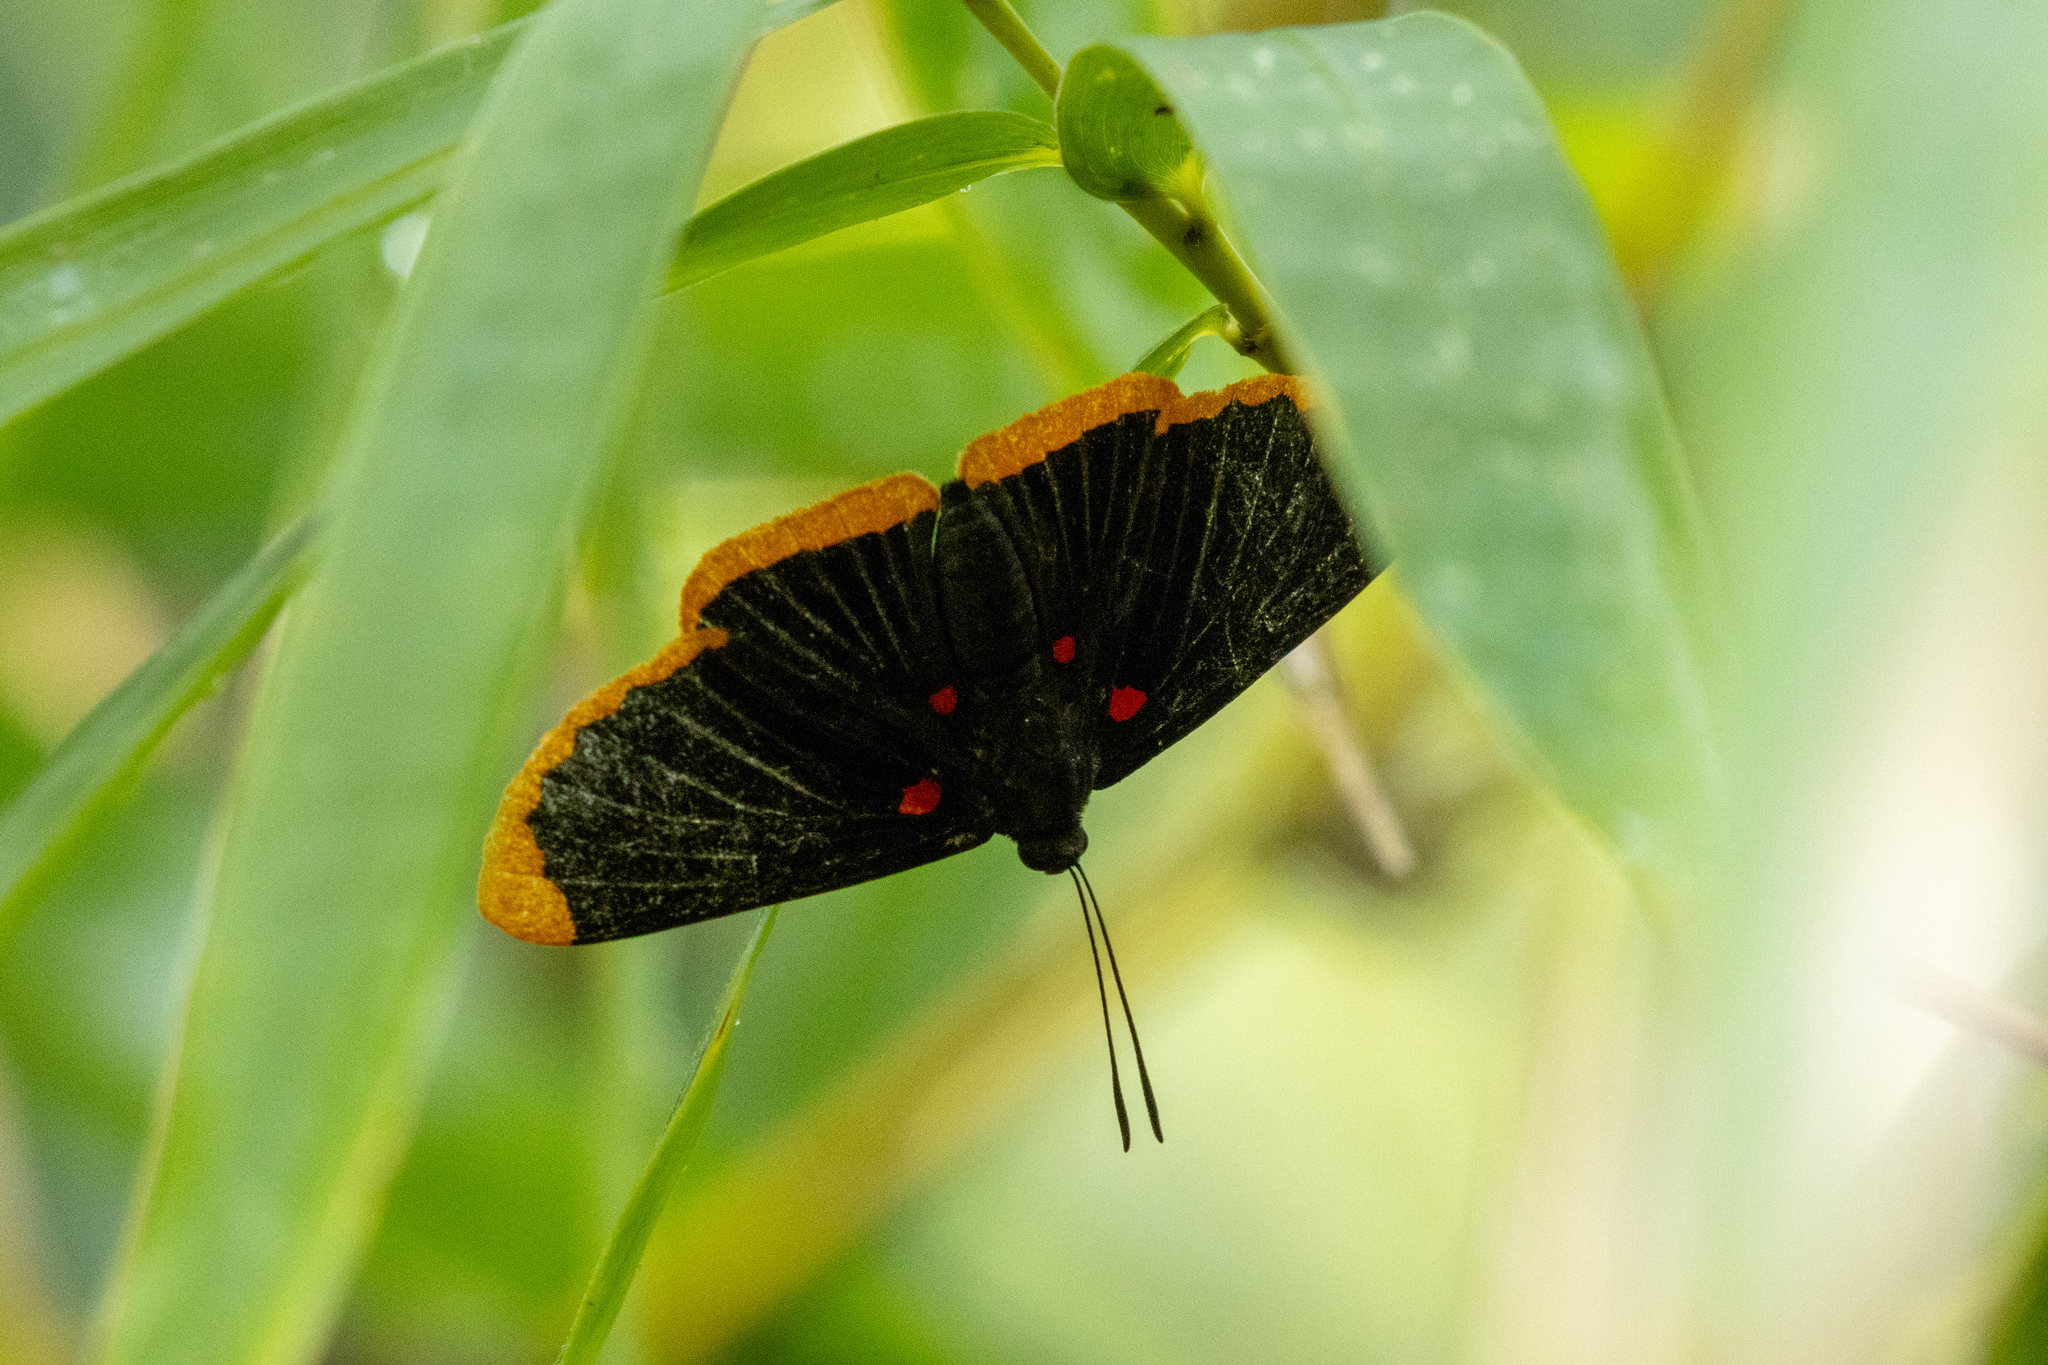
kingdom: Animalia
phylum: Arthropoda
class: Insecta
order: Lepidoptera
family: Lycaenidae
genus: Melanis
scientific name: Melanis smithiae
